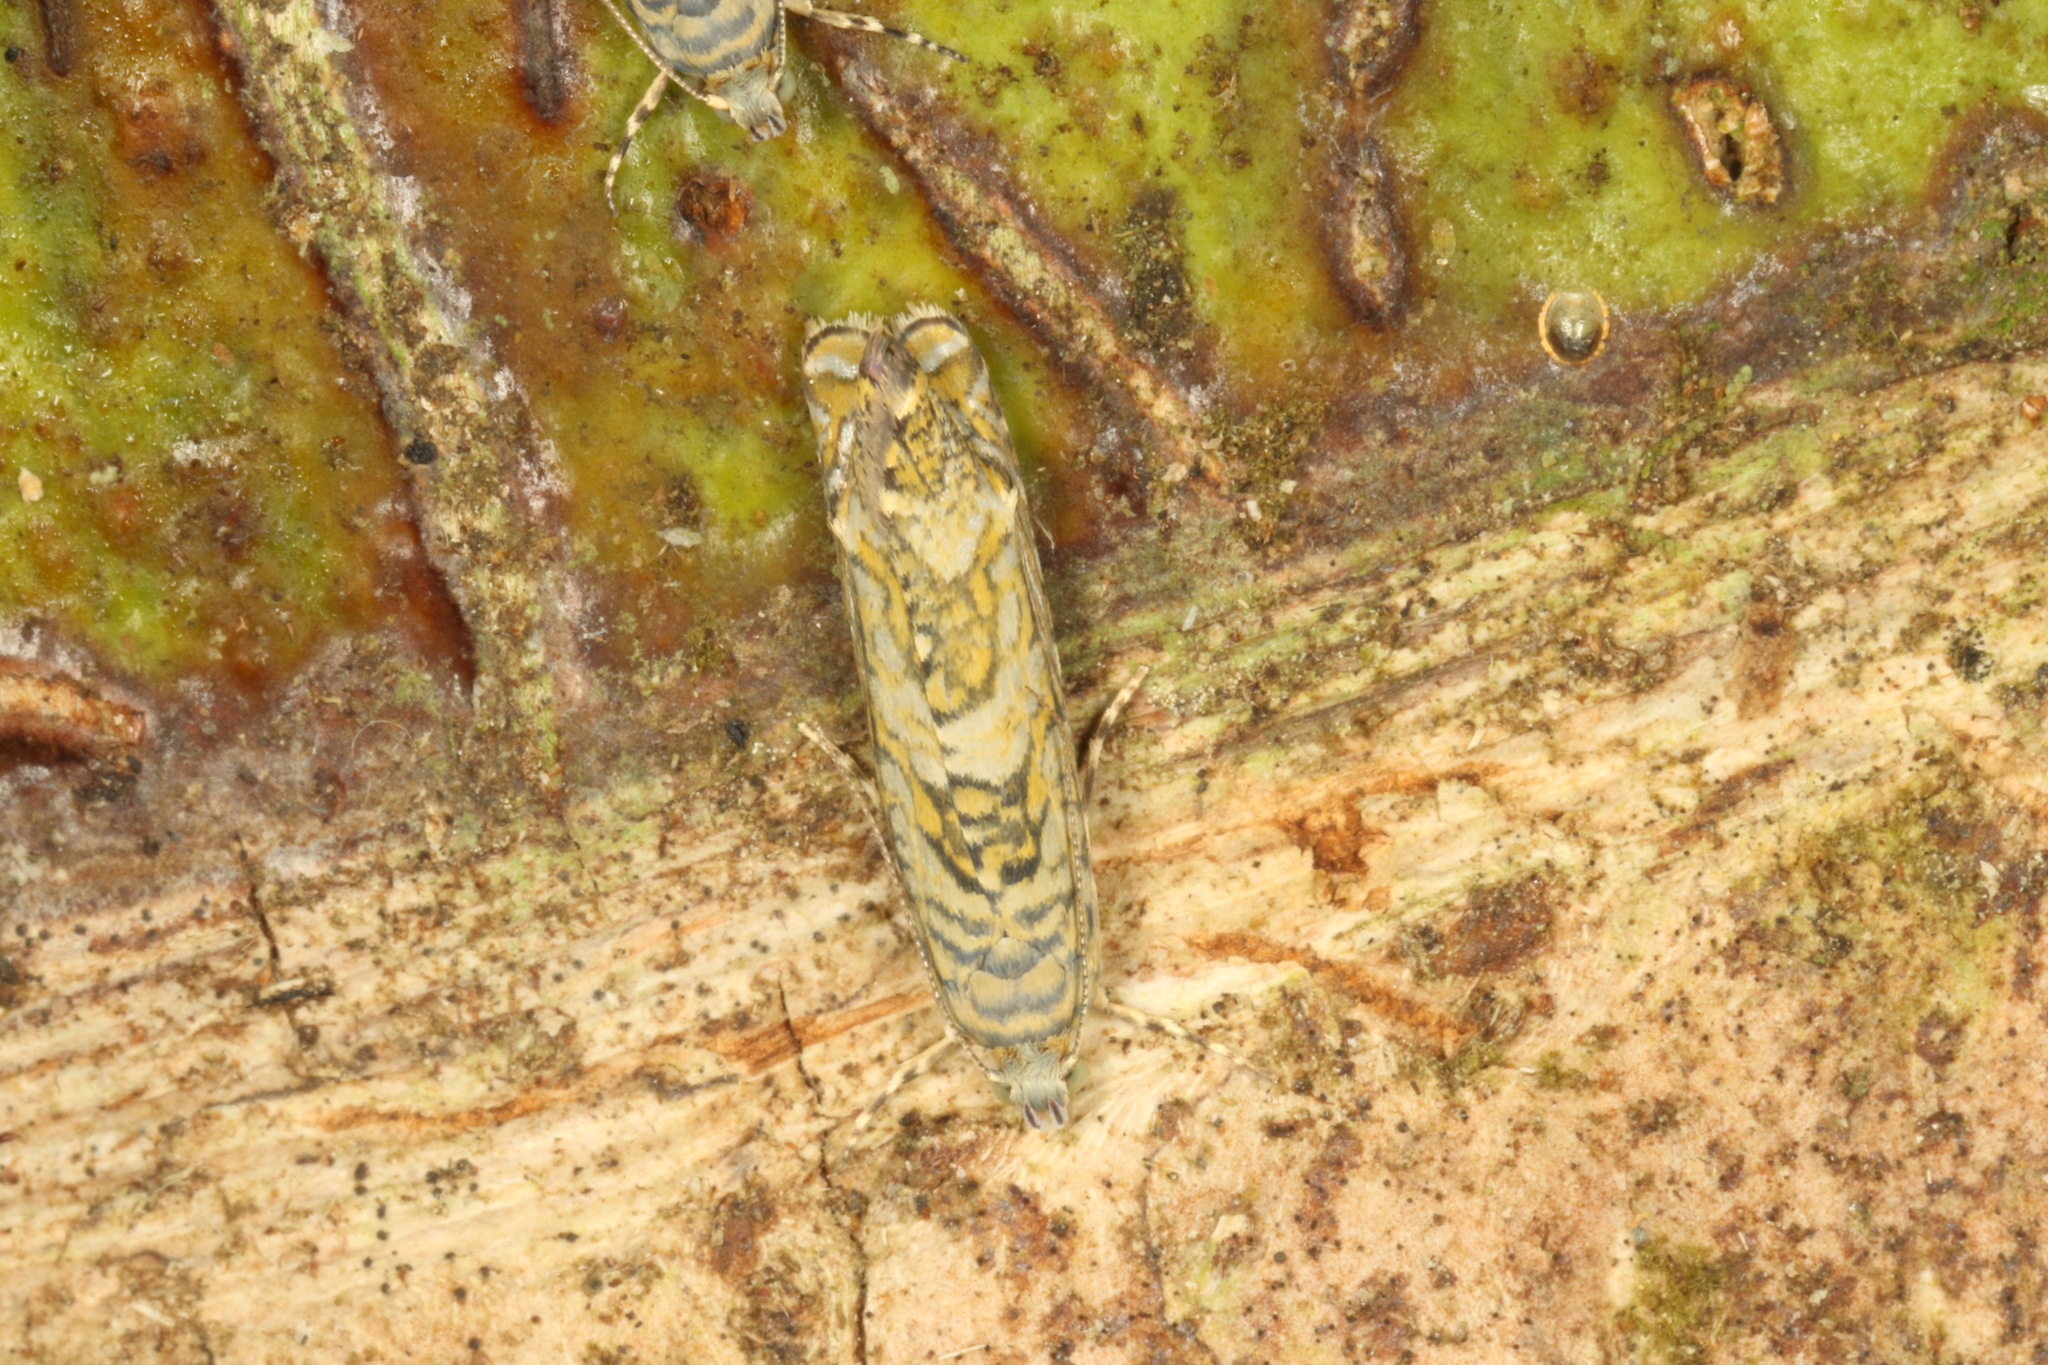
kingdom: Animalia
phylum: Arthropoda
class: Insecta
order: Lepidoptera
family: Plutellidae
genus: Doxophyrtis
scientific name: Doxophyrtis hydrocosma
